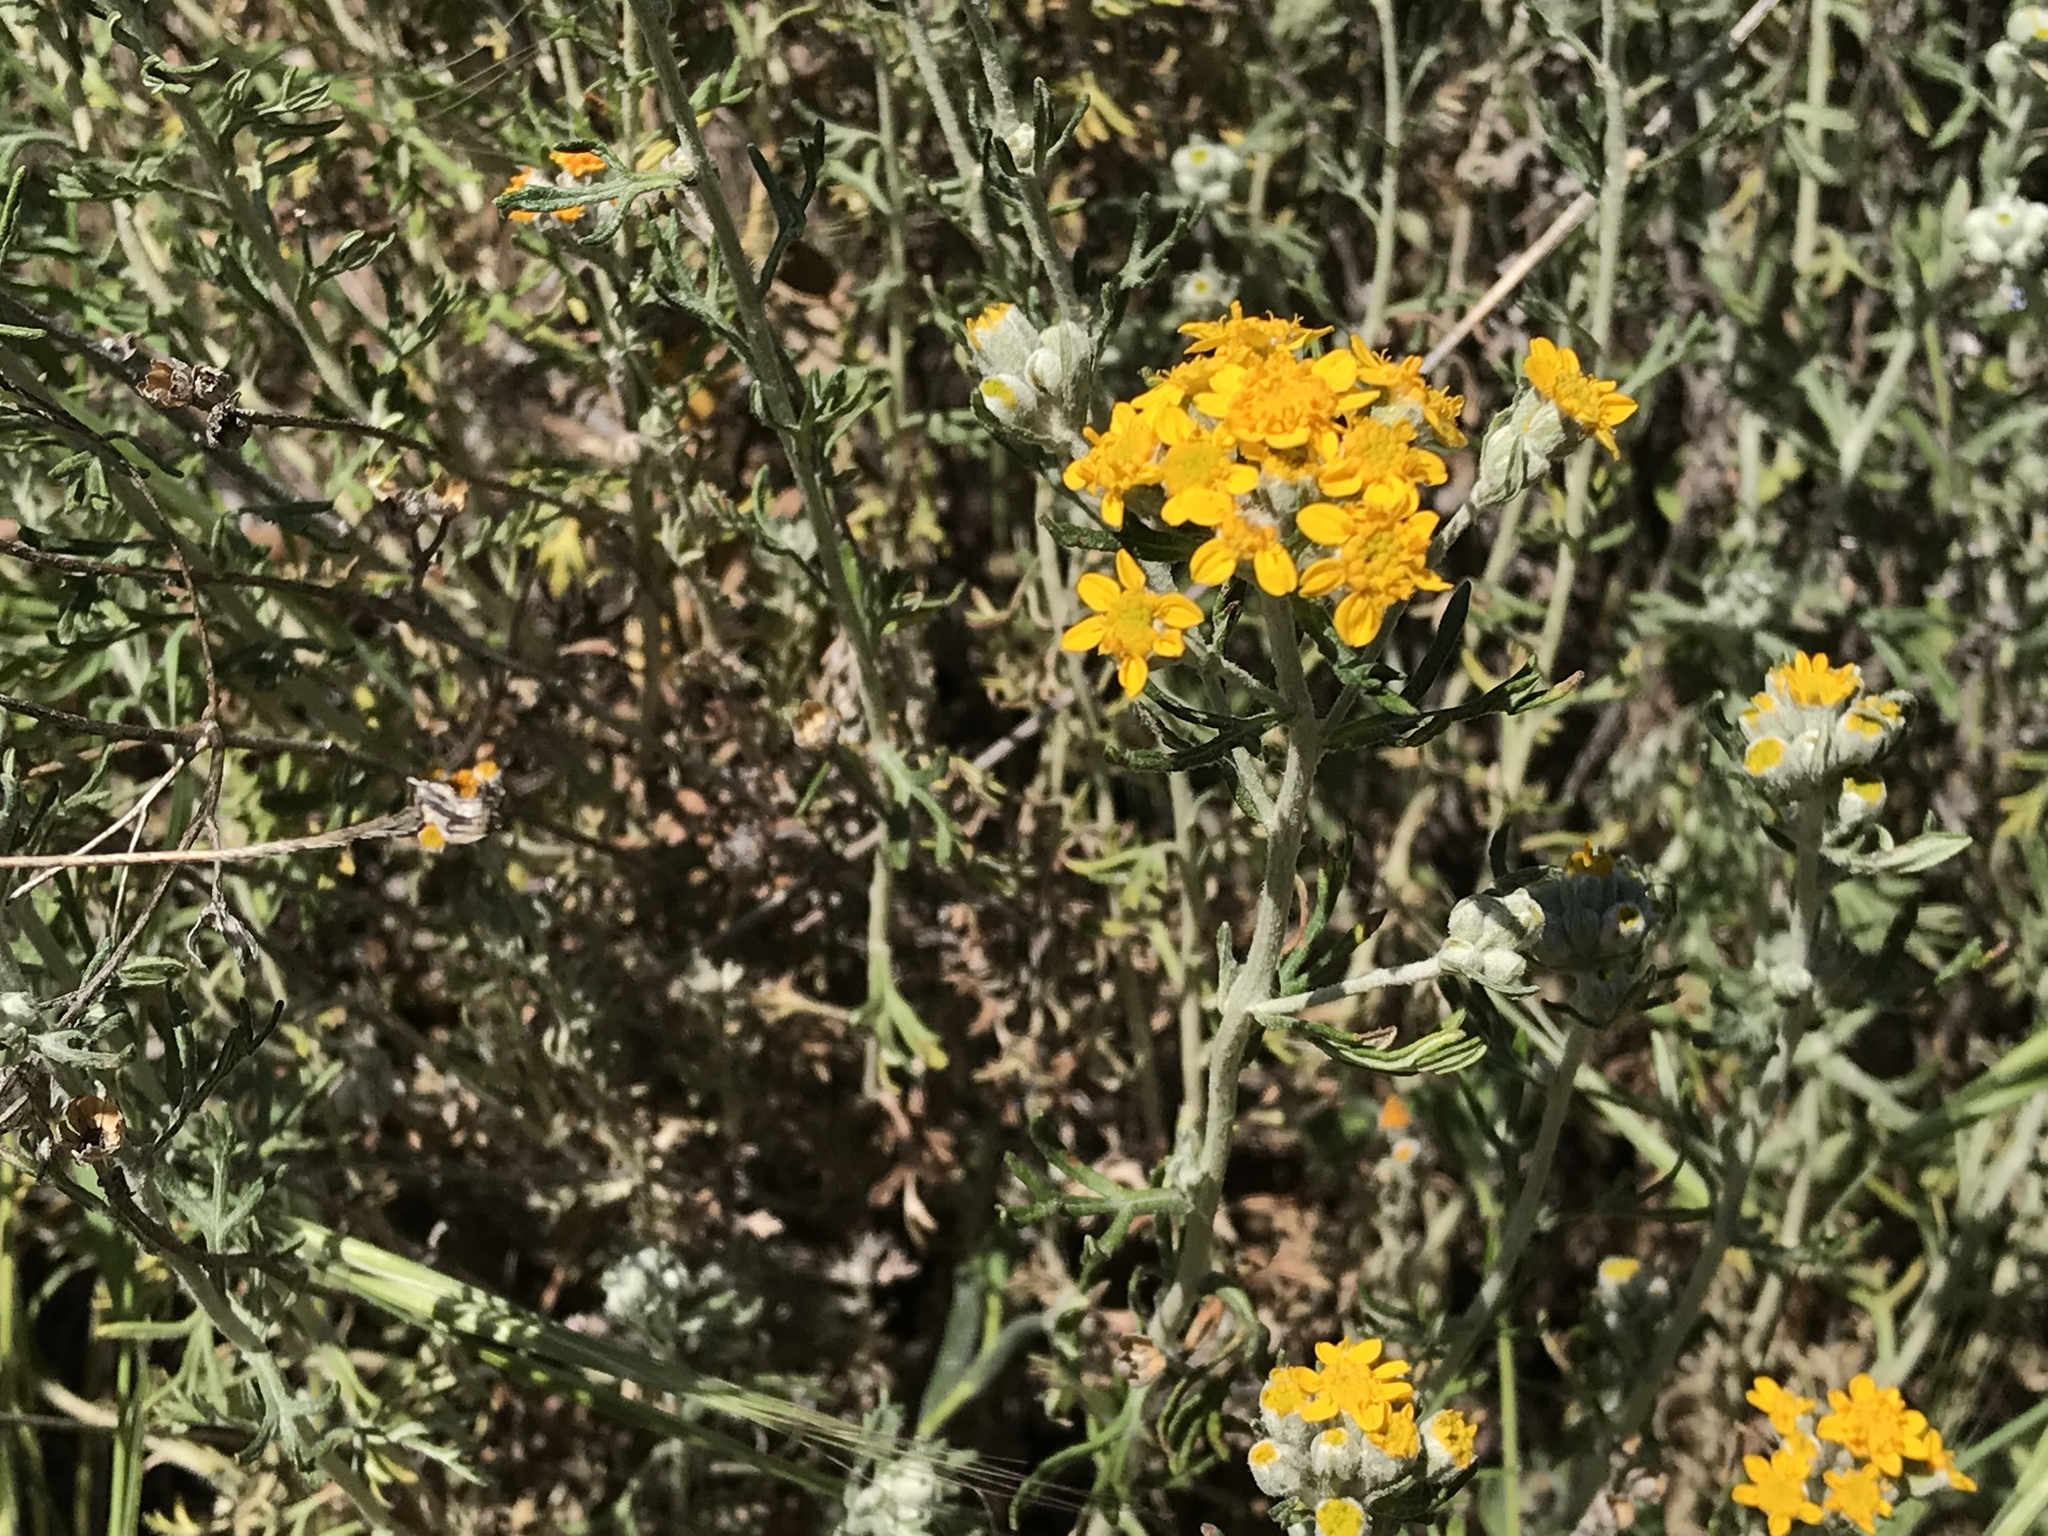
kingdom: Plantae
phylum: Tracheophyta
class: Magnoliopsida
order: Asterales
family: Asteraceae
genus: Eriophyllum
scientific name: Eriophyllum confertiflorum
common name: Golden-yarrow
